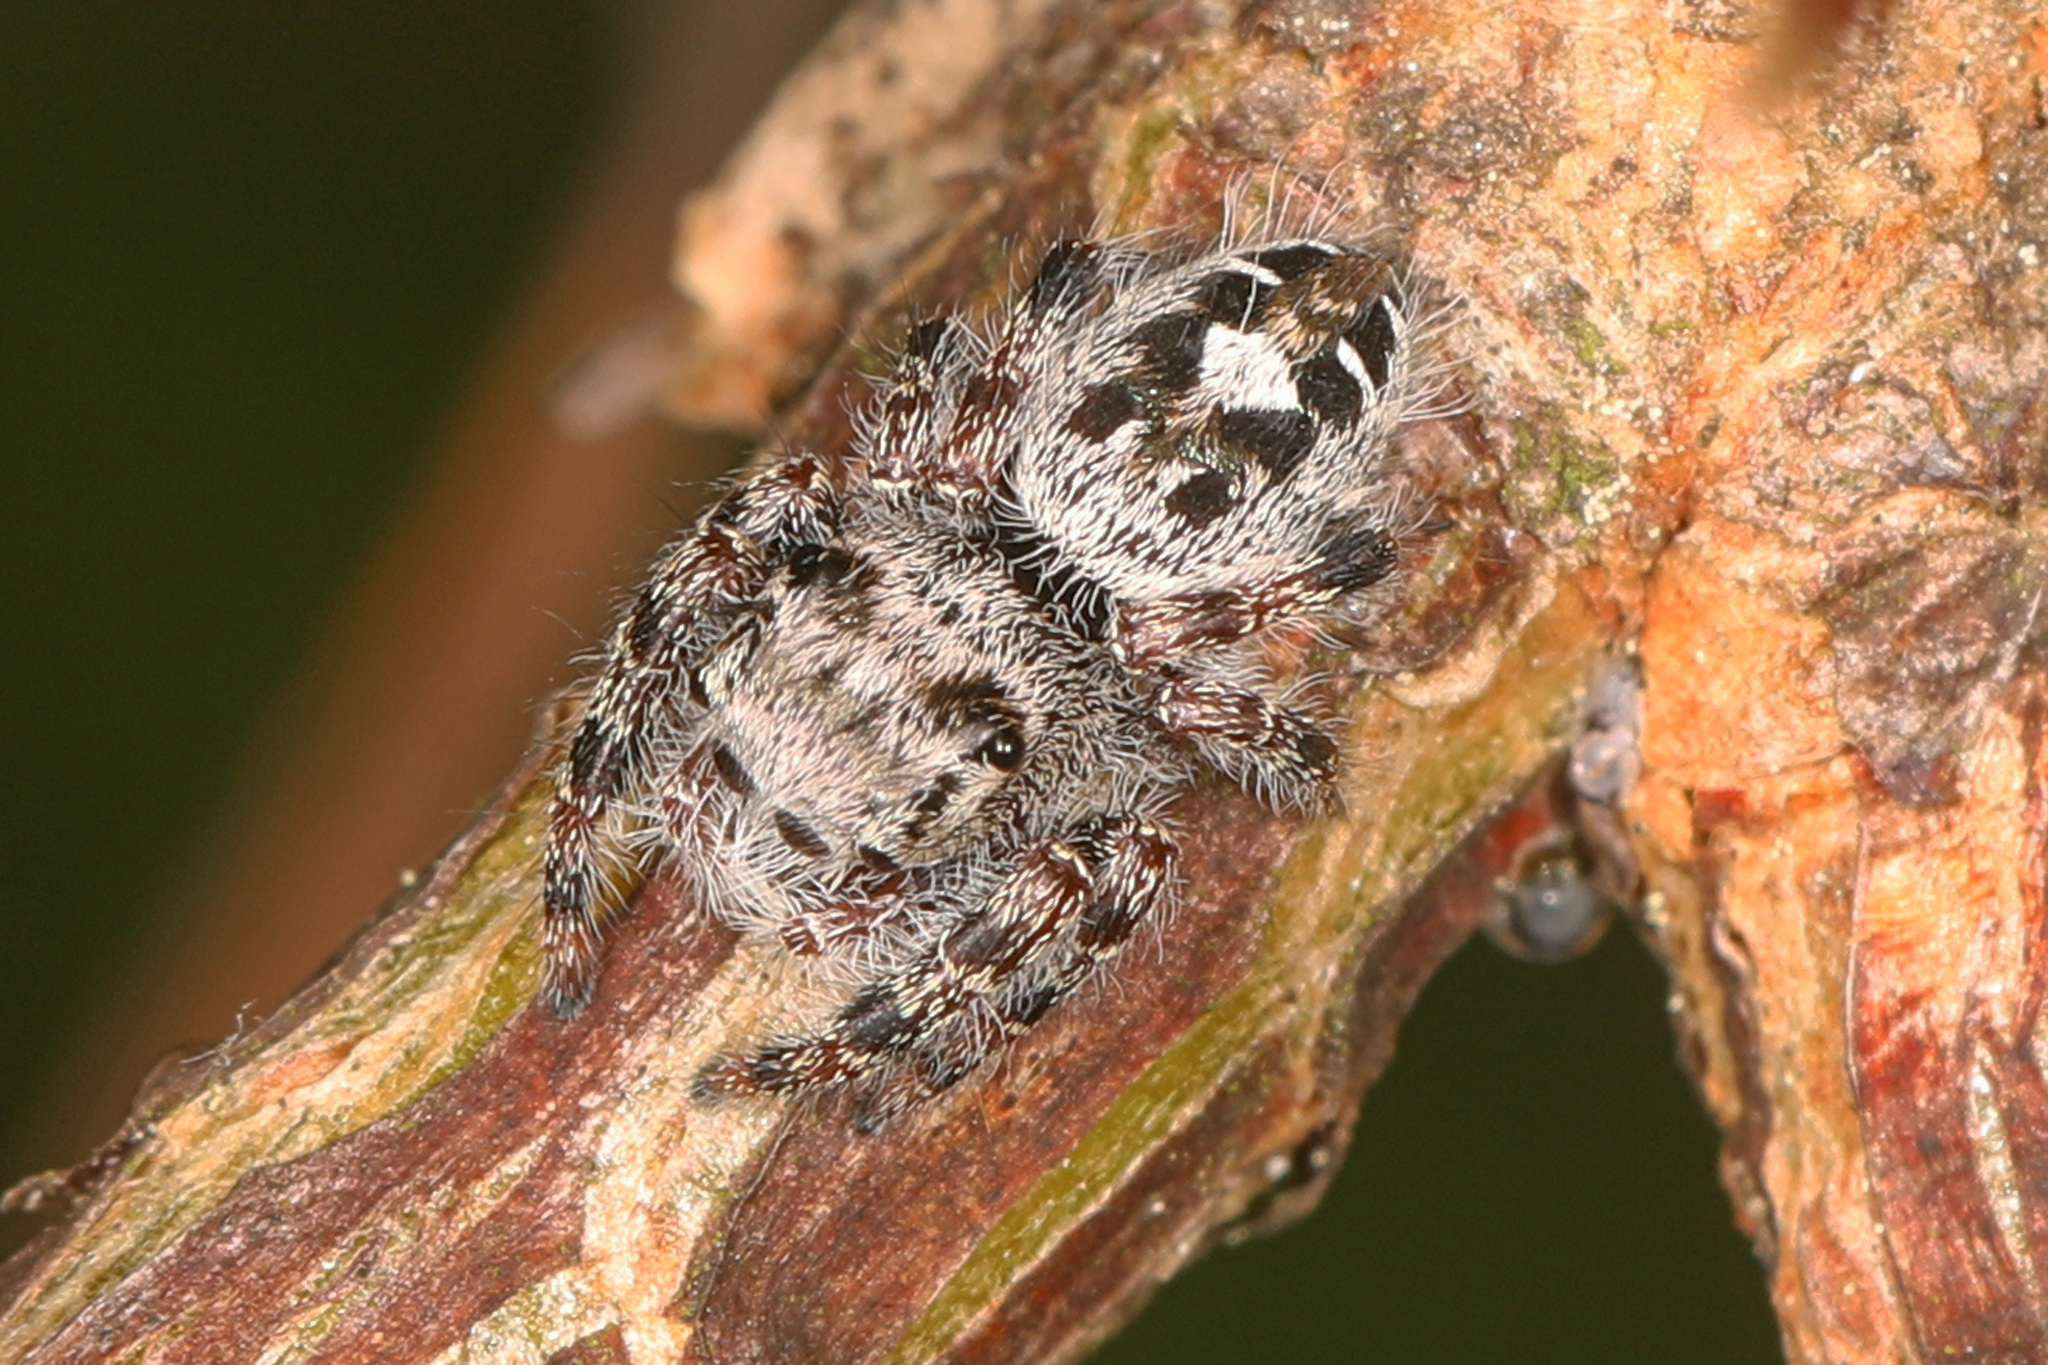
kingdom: Animalia
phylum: Arthropoda
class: Arachnida
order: Araneae
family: Salticidae
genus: Phidippus
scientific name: Phidippus putnami
